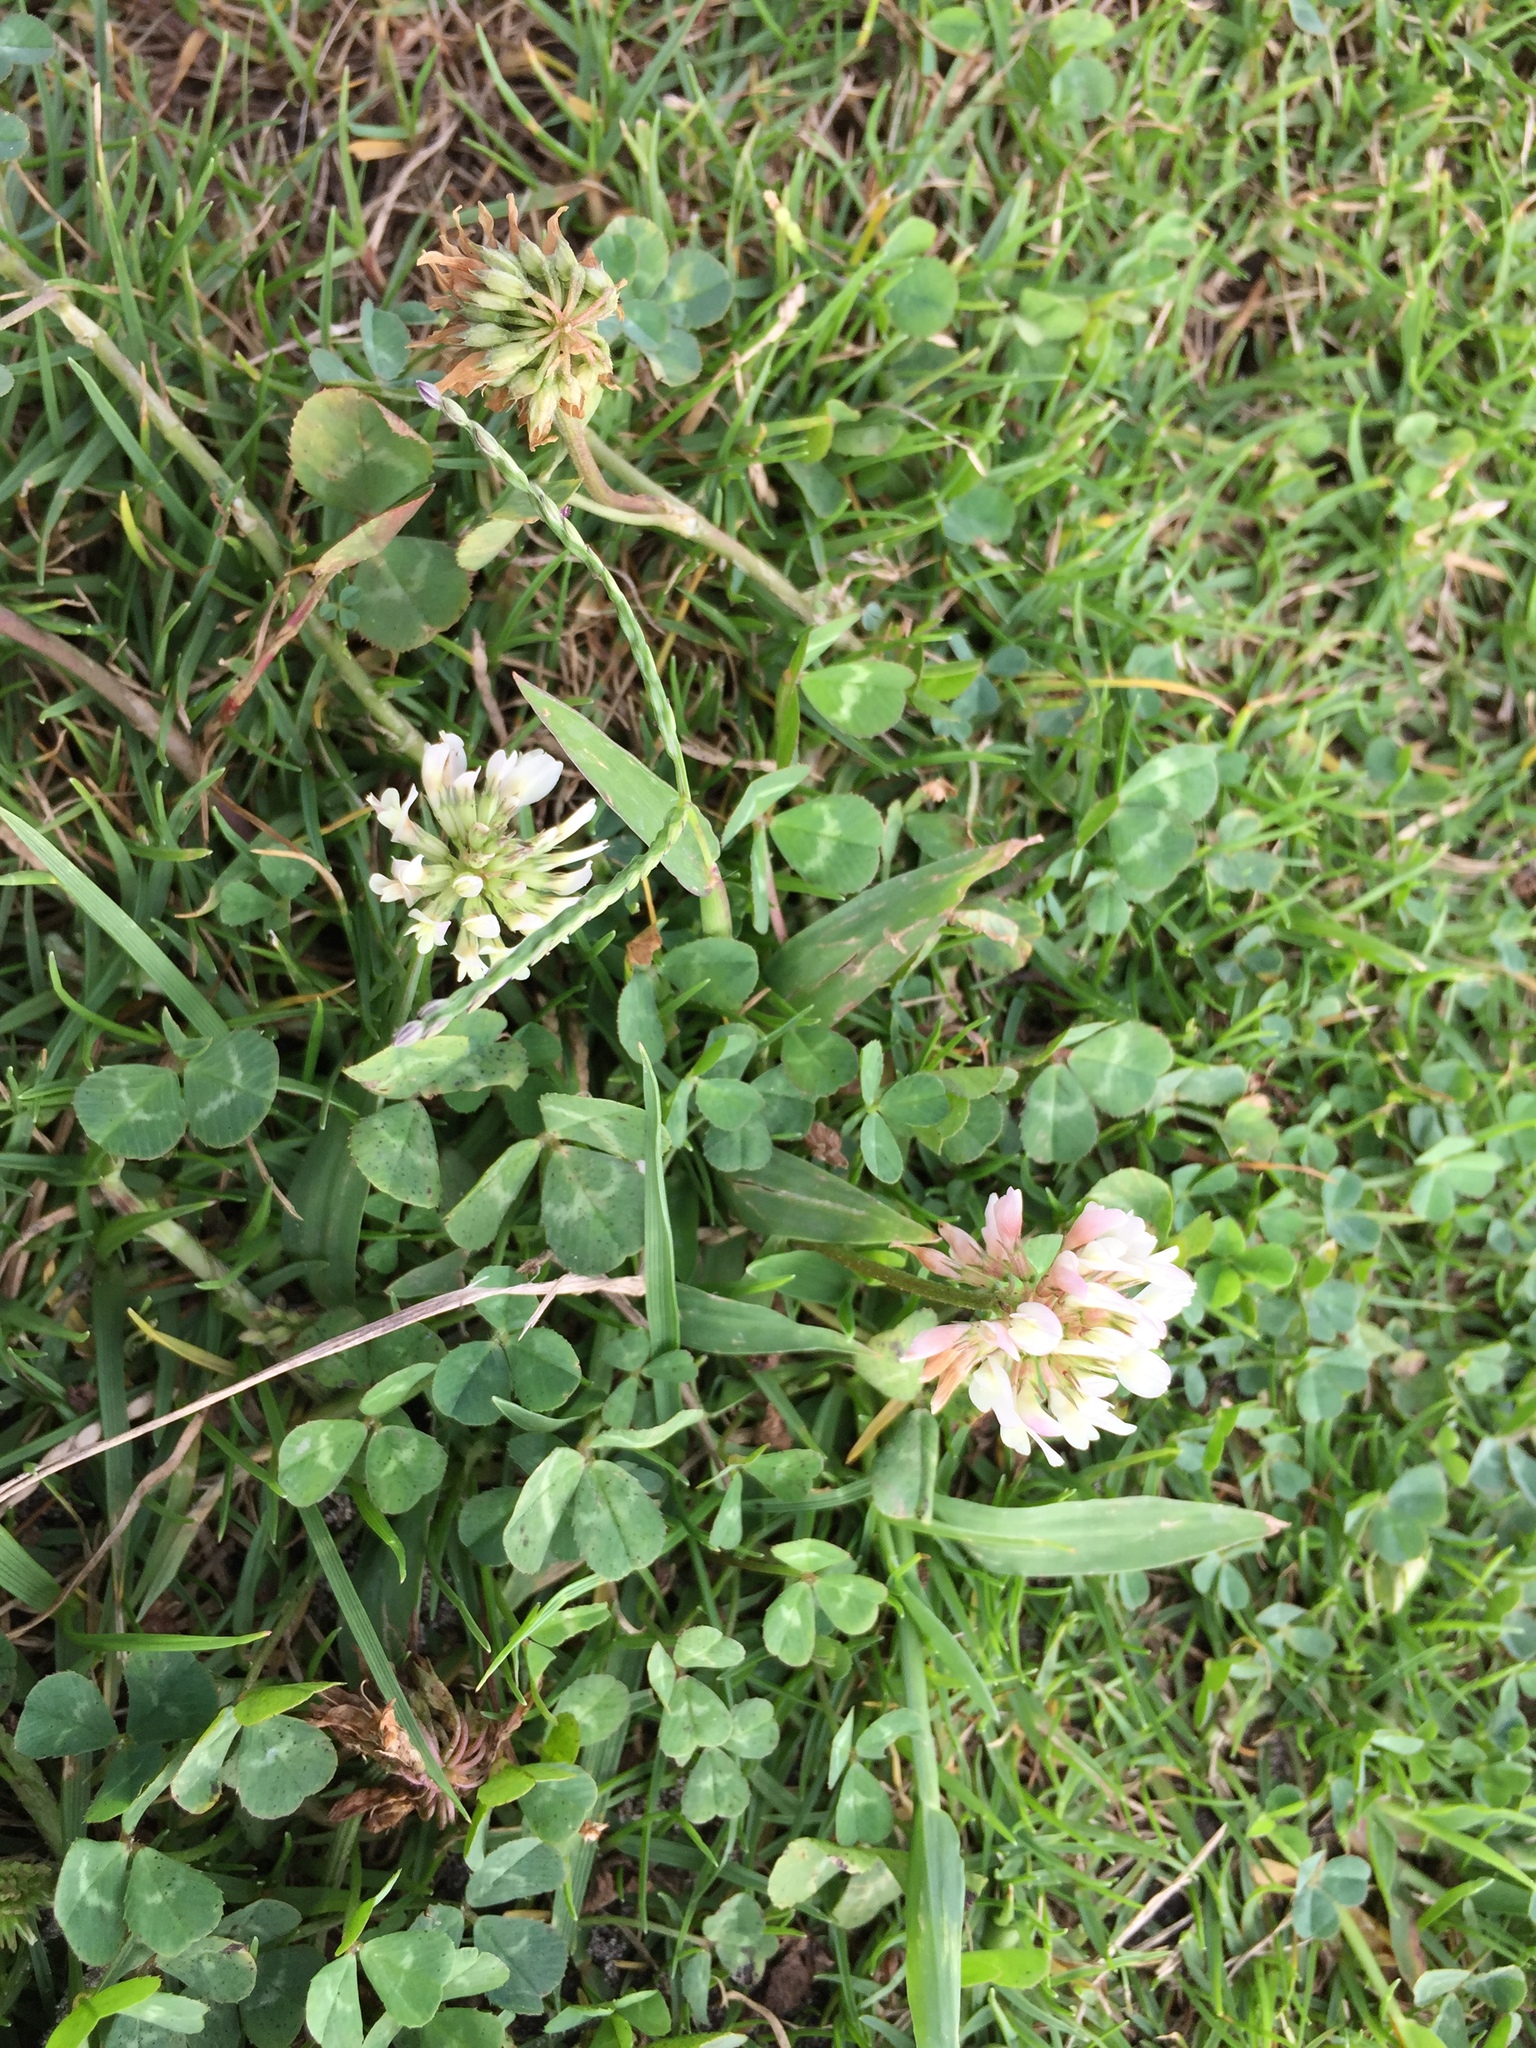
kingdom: Plantae
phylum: Tracheophyta
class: Magnoliopsida
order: Fabales
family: Fabaceae
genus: Trifolium
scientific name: Trifolium repens
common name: White clover
